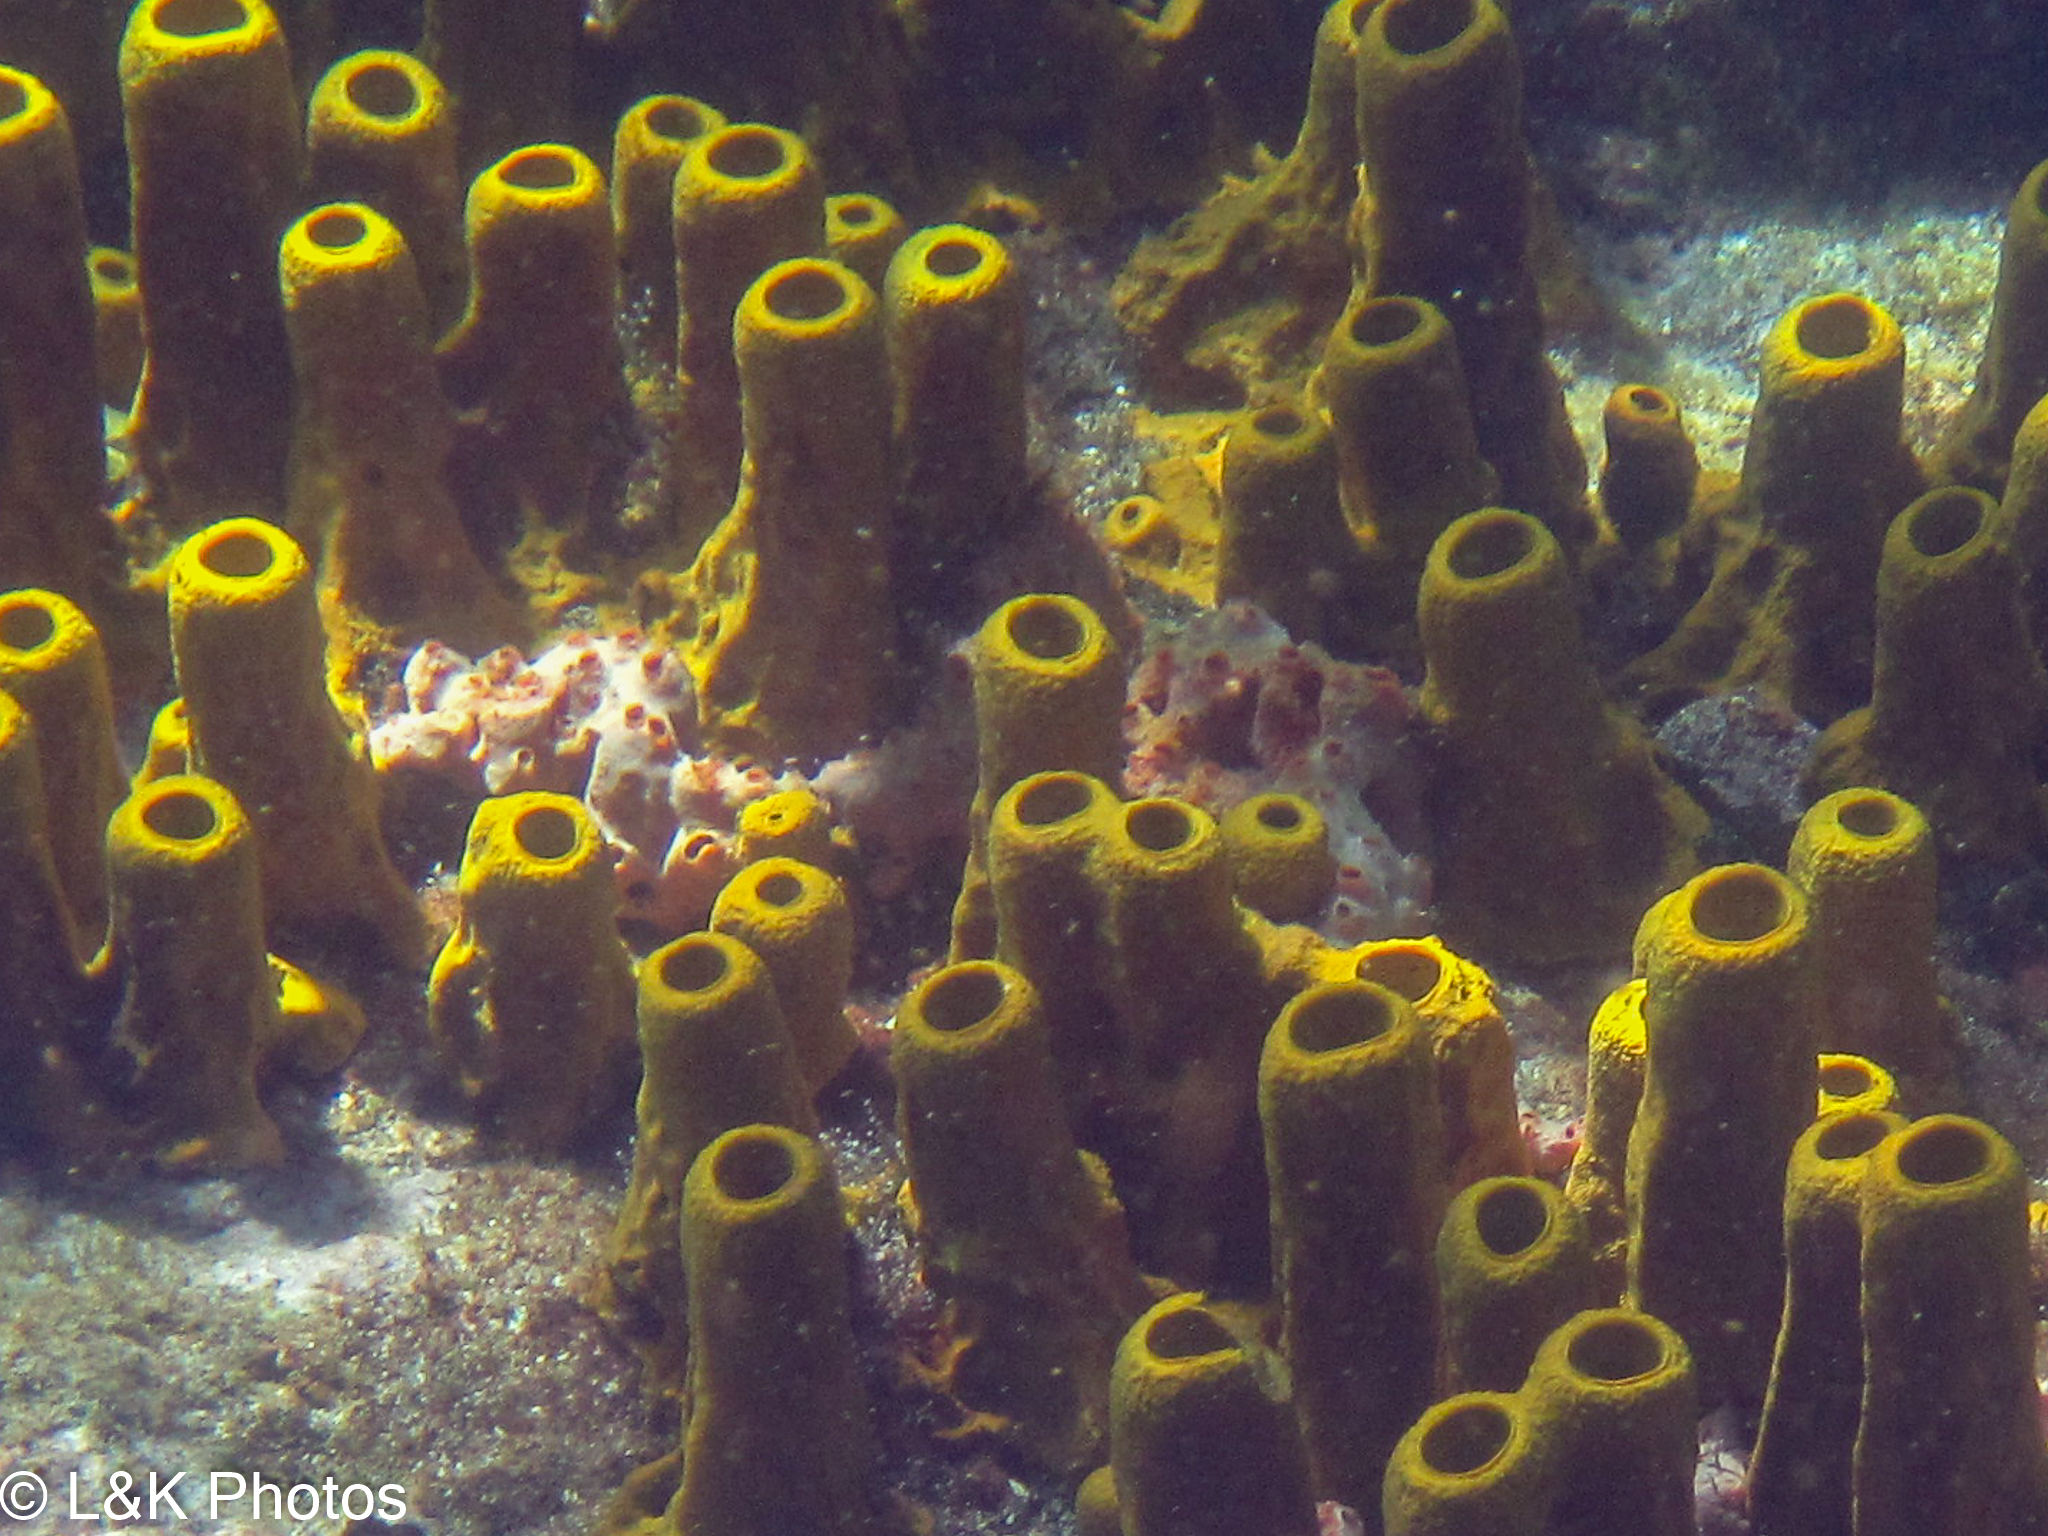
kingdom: Animalia
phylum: Porifera
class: Demospongiae
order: Poecilosclerida
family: Desmacididae
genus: Desmapsamma
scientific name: Desmapsamma anchorata
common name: Lumpy overgrowing sponge
